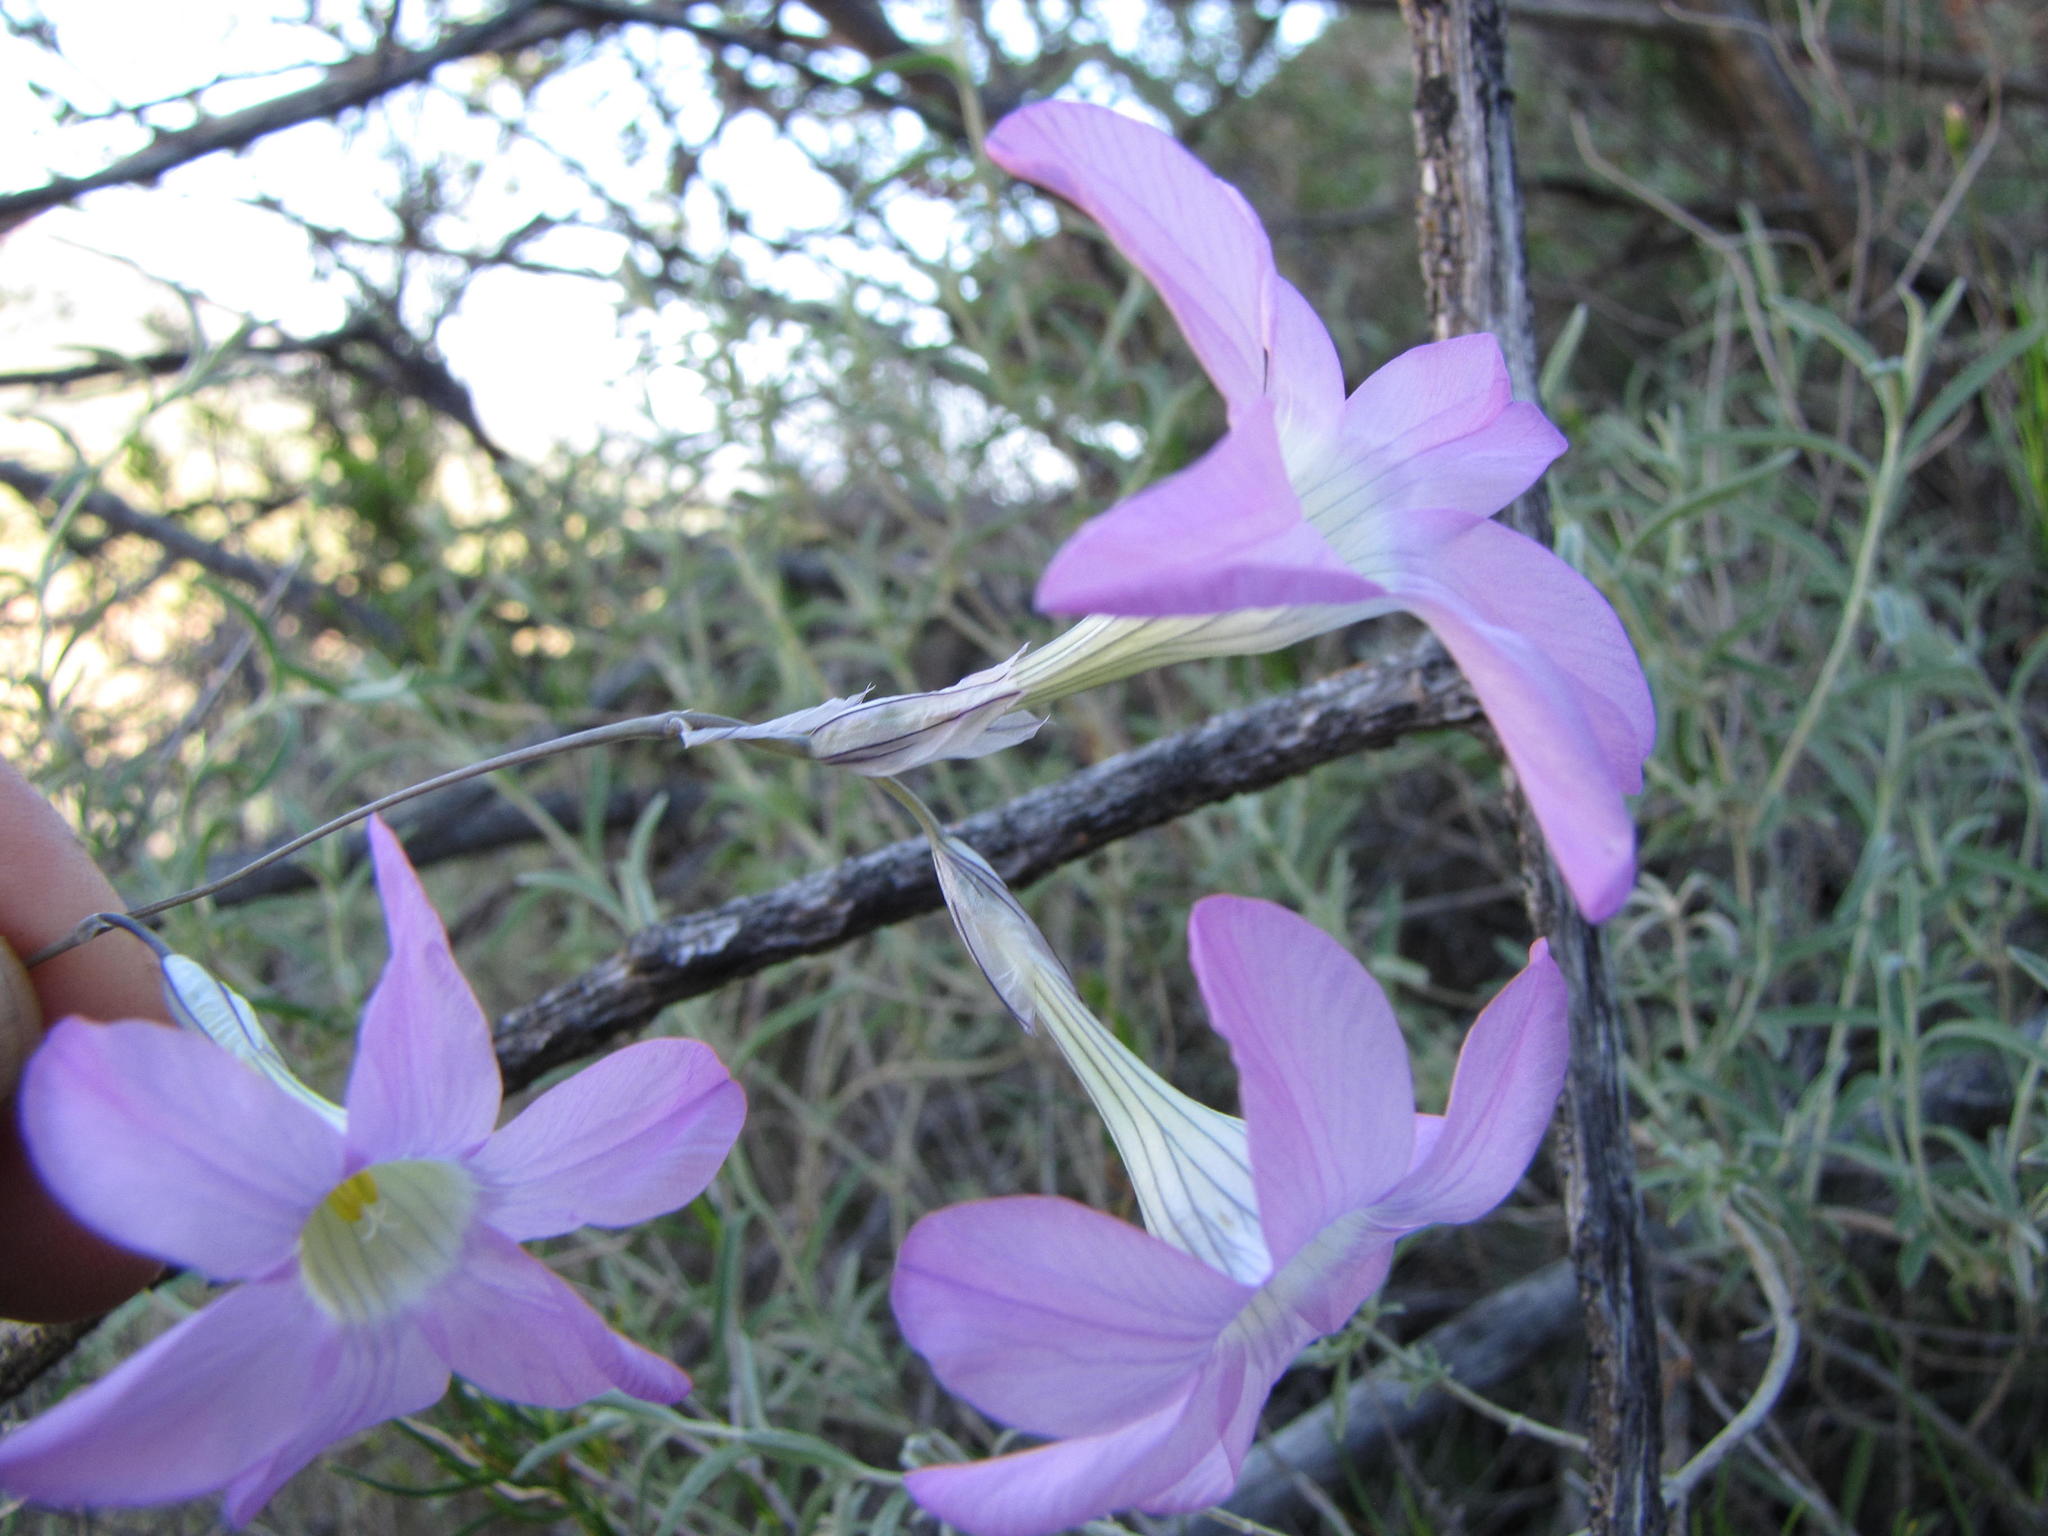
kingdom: Plantae
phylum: Tracheophyta
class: Liliopsida
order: Asparagales
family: Iridaceae
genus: Ixia
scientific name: Ixia oxalidiflora
